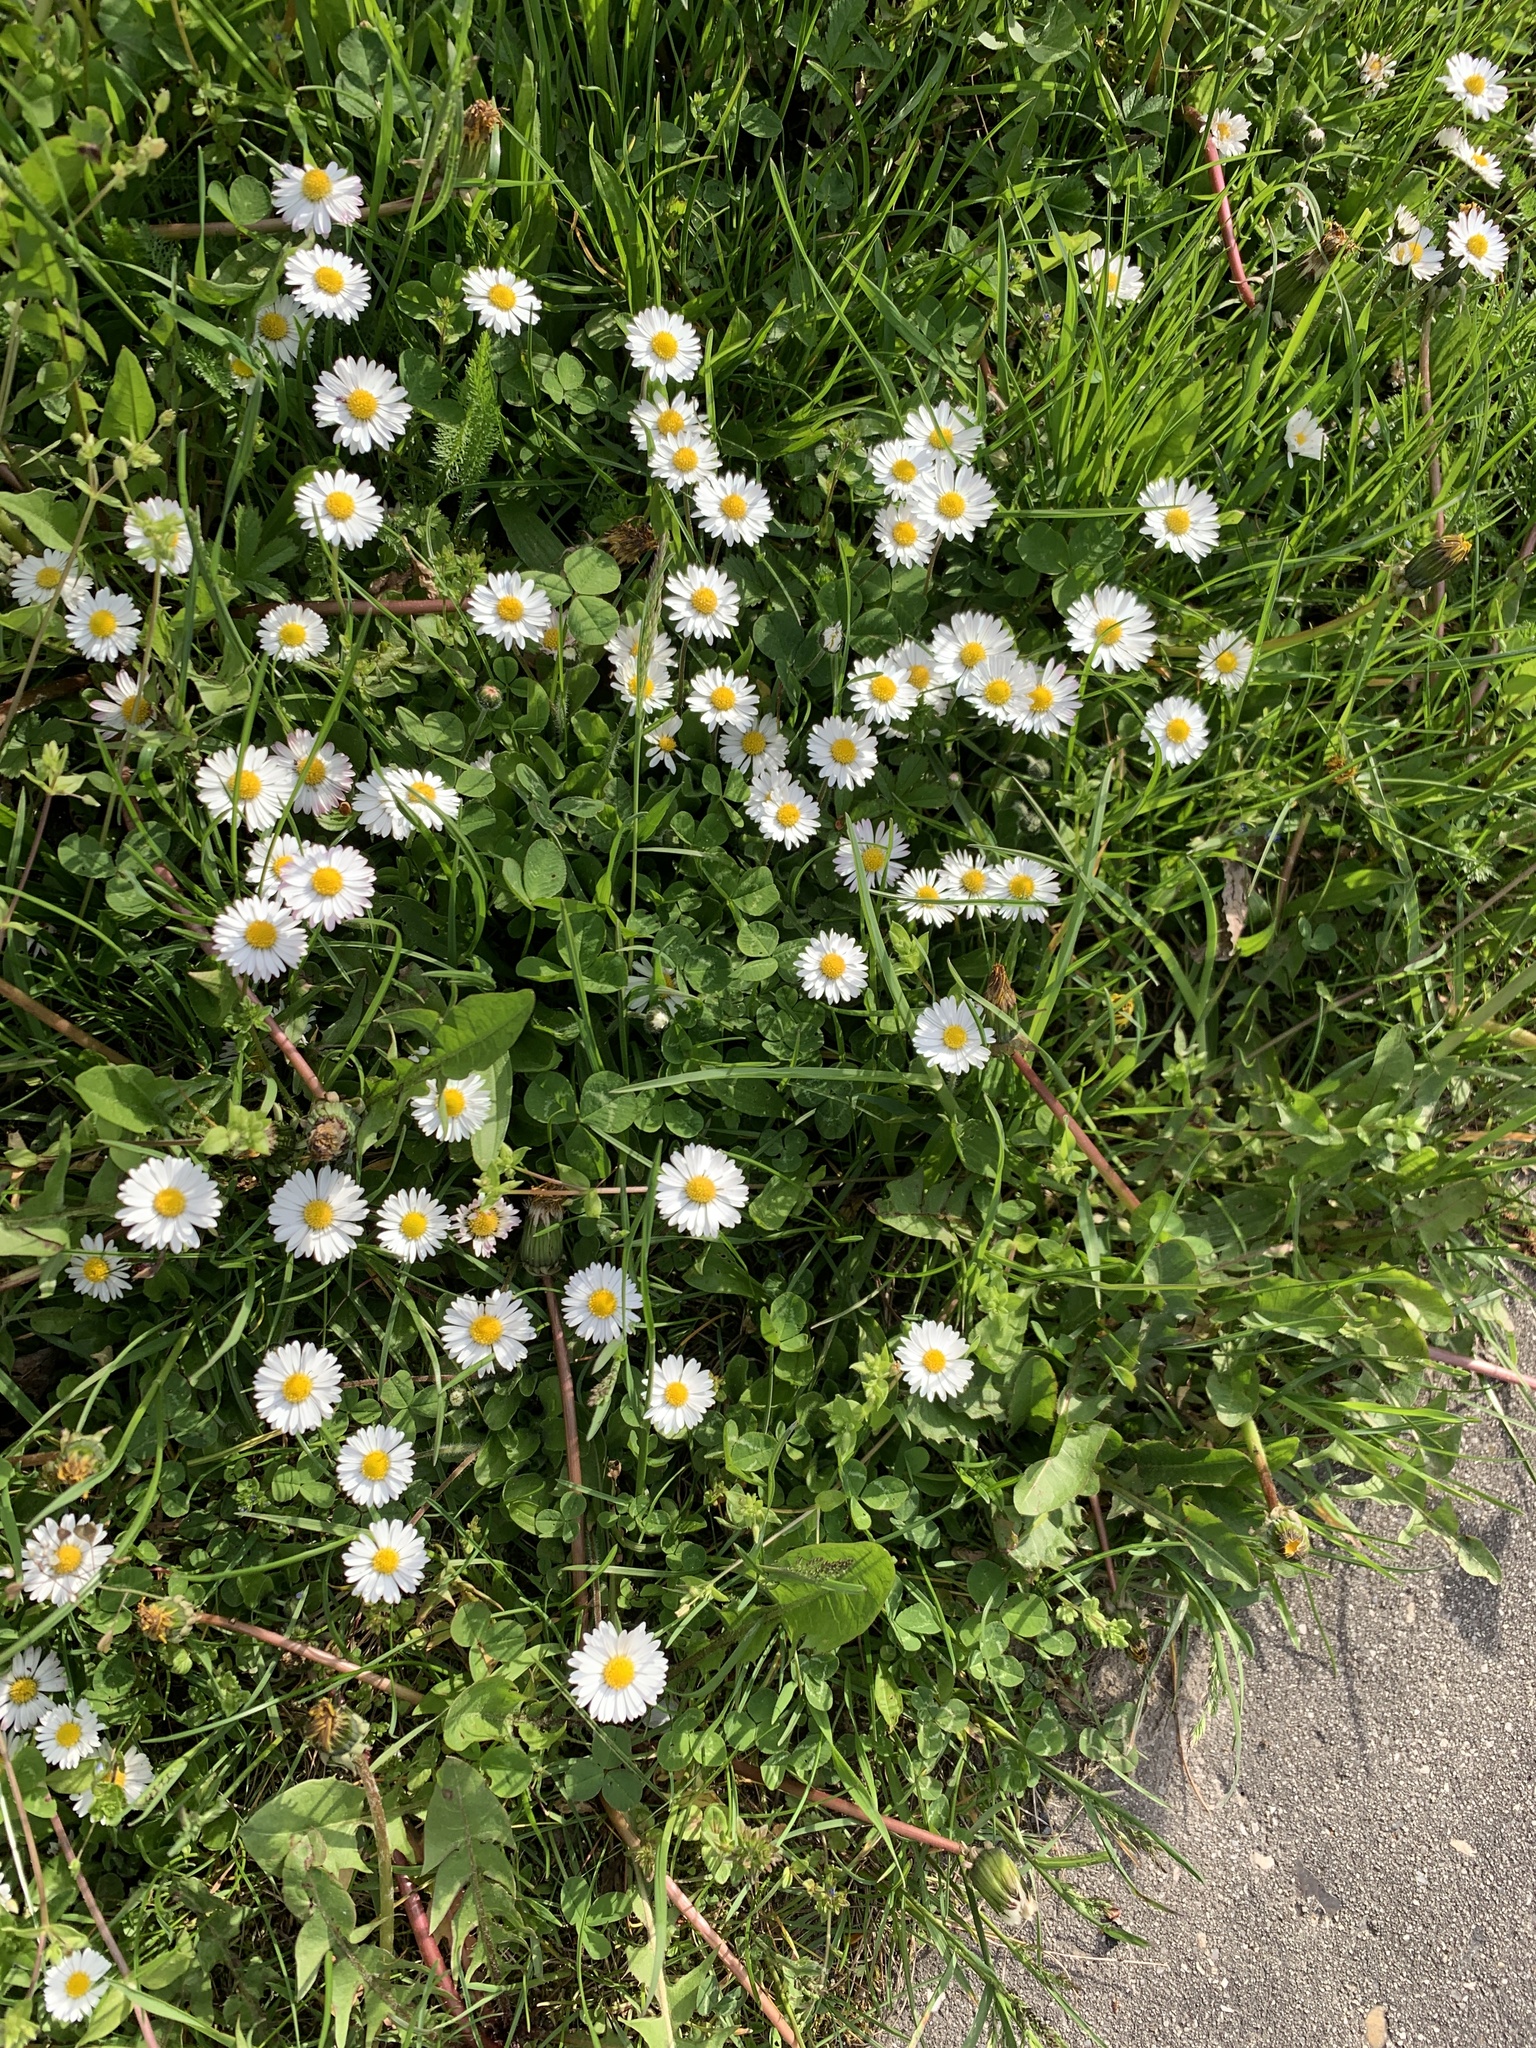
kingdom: Plantae
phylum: Tracheophyta
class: Magnoliopsida
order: Asterales
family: Asteraceae
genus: Bellis
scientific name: Bellis perennis
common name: Lawndaisy
